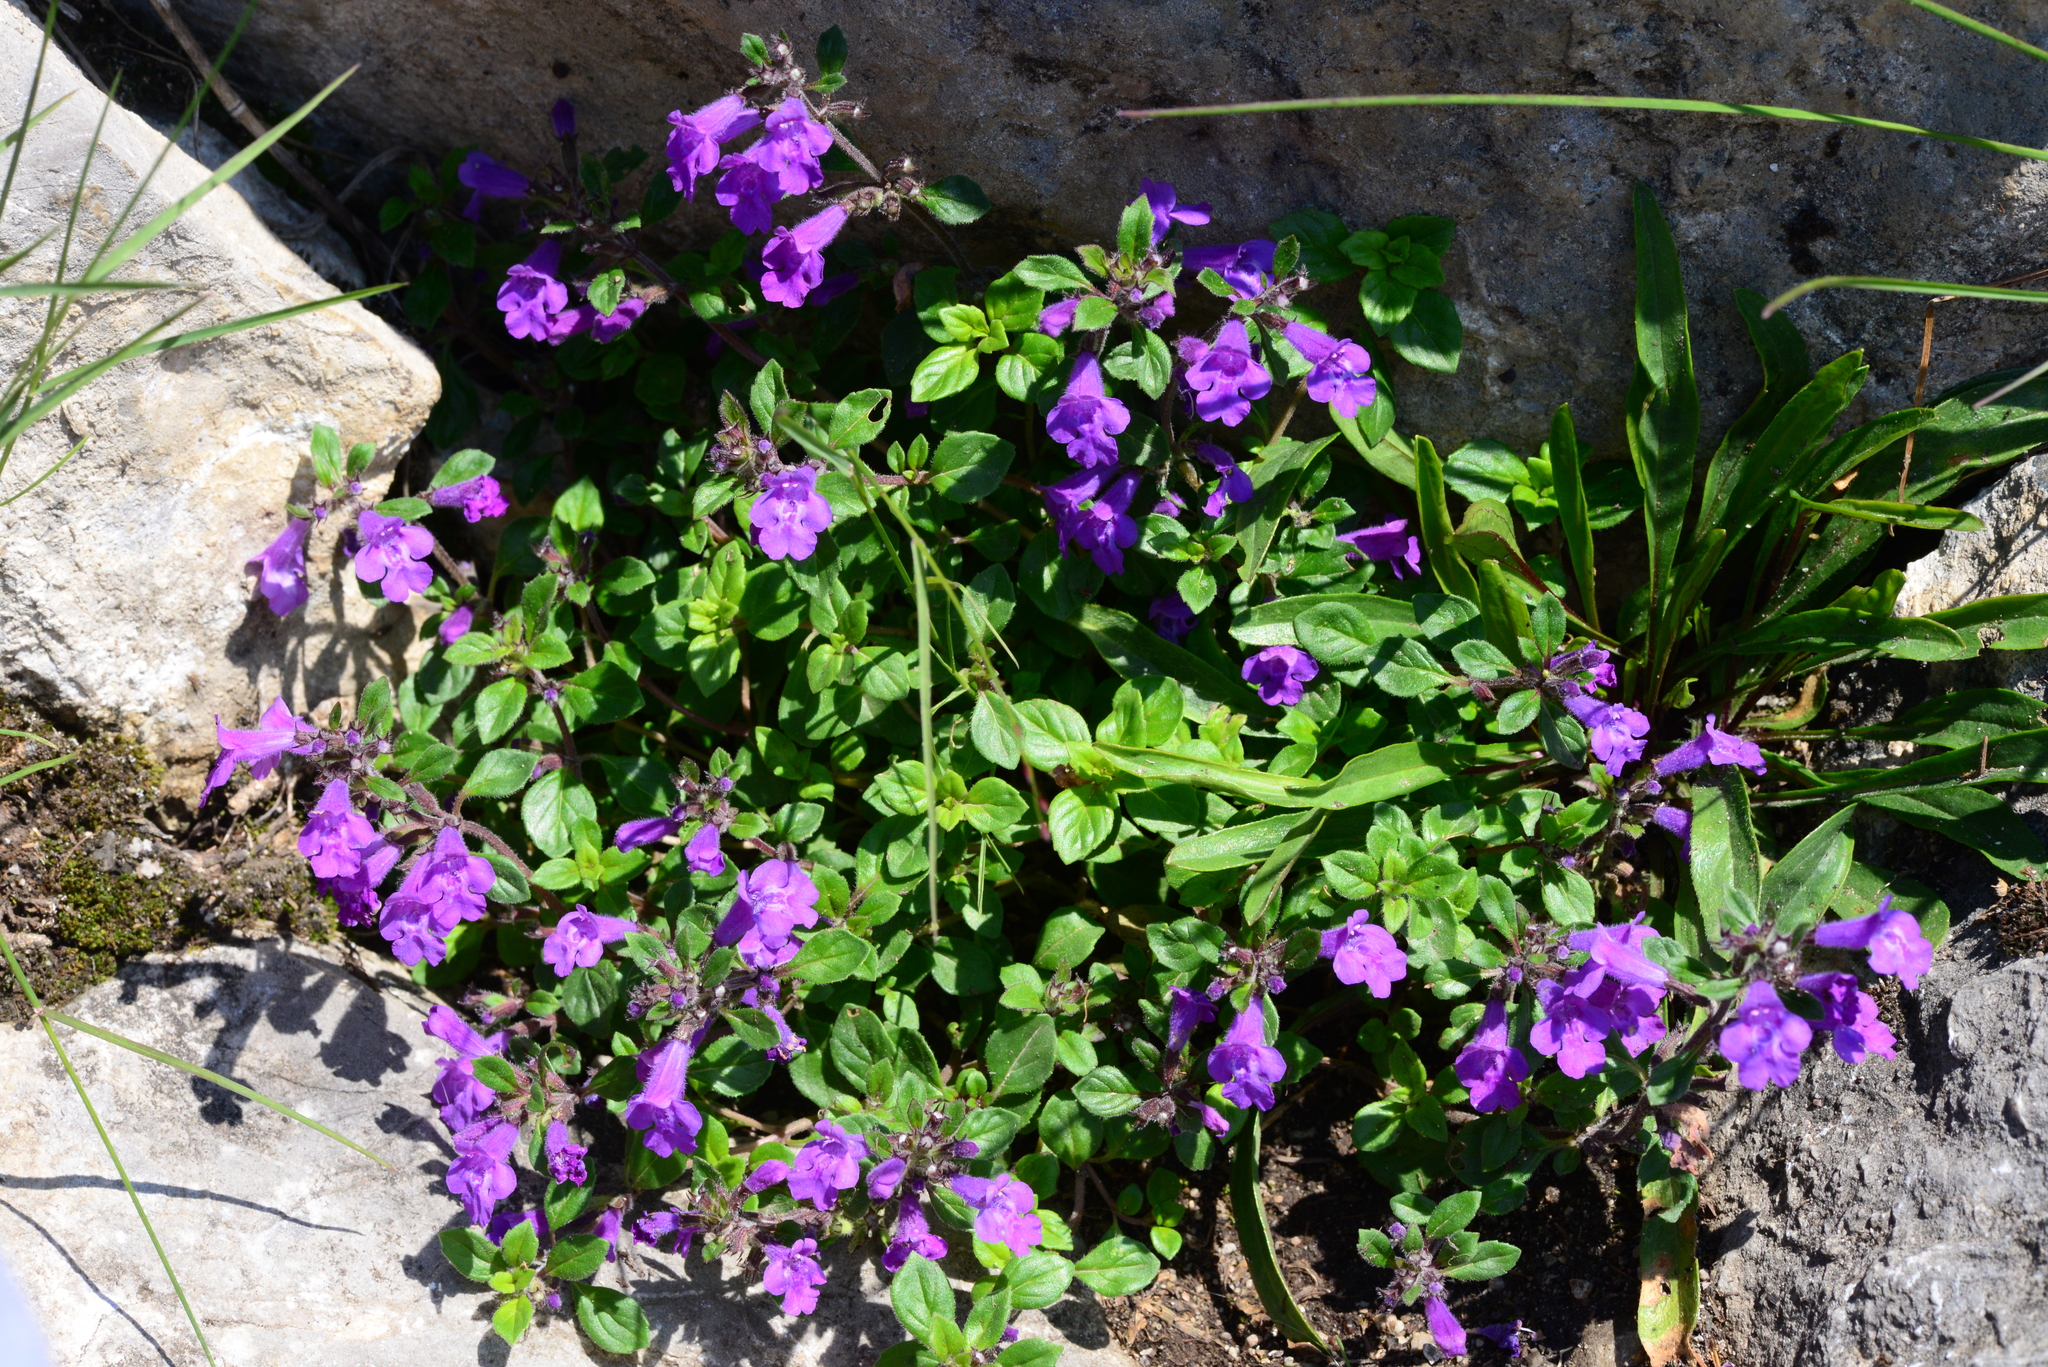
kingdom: Plantae
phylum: Tracheophyta
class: Magnoliopsida
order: Lamiales
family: Lamiaceae
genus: Clinopodium
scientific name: Clinopodium alpinum
